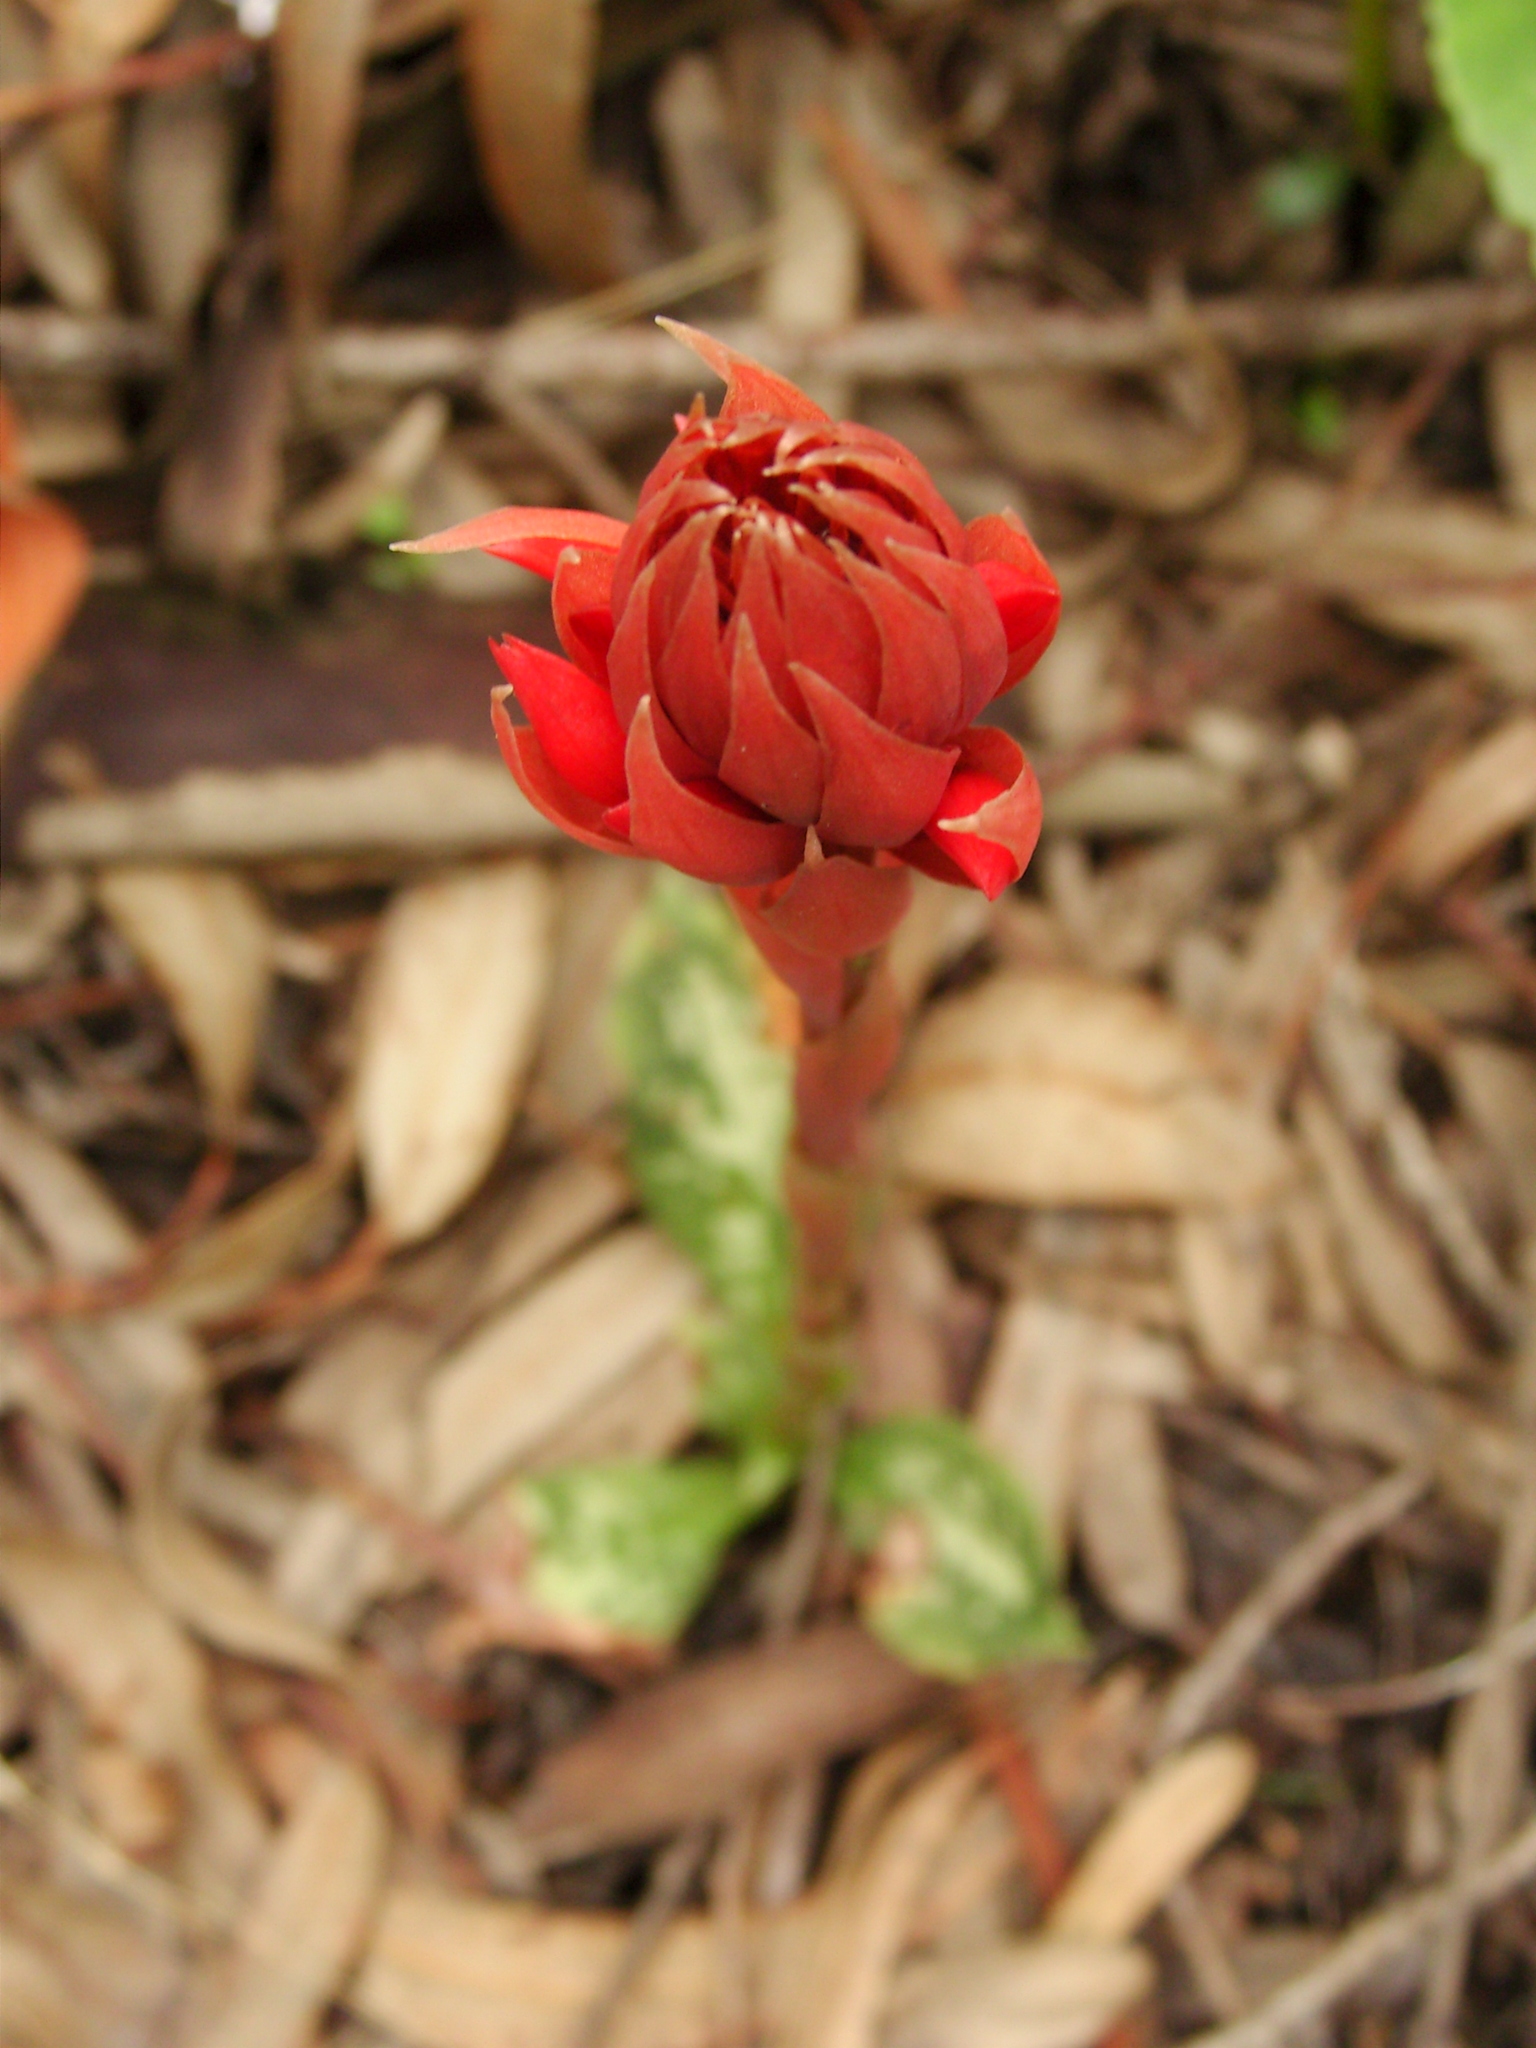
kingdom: Plantae
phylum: Tracheophyta
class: Liliopsida
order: Asparagales
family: Orchidaceae
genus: Stenorrhynchos
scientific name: Stenorrhynchos albidomaculatum
